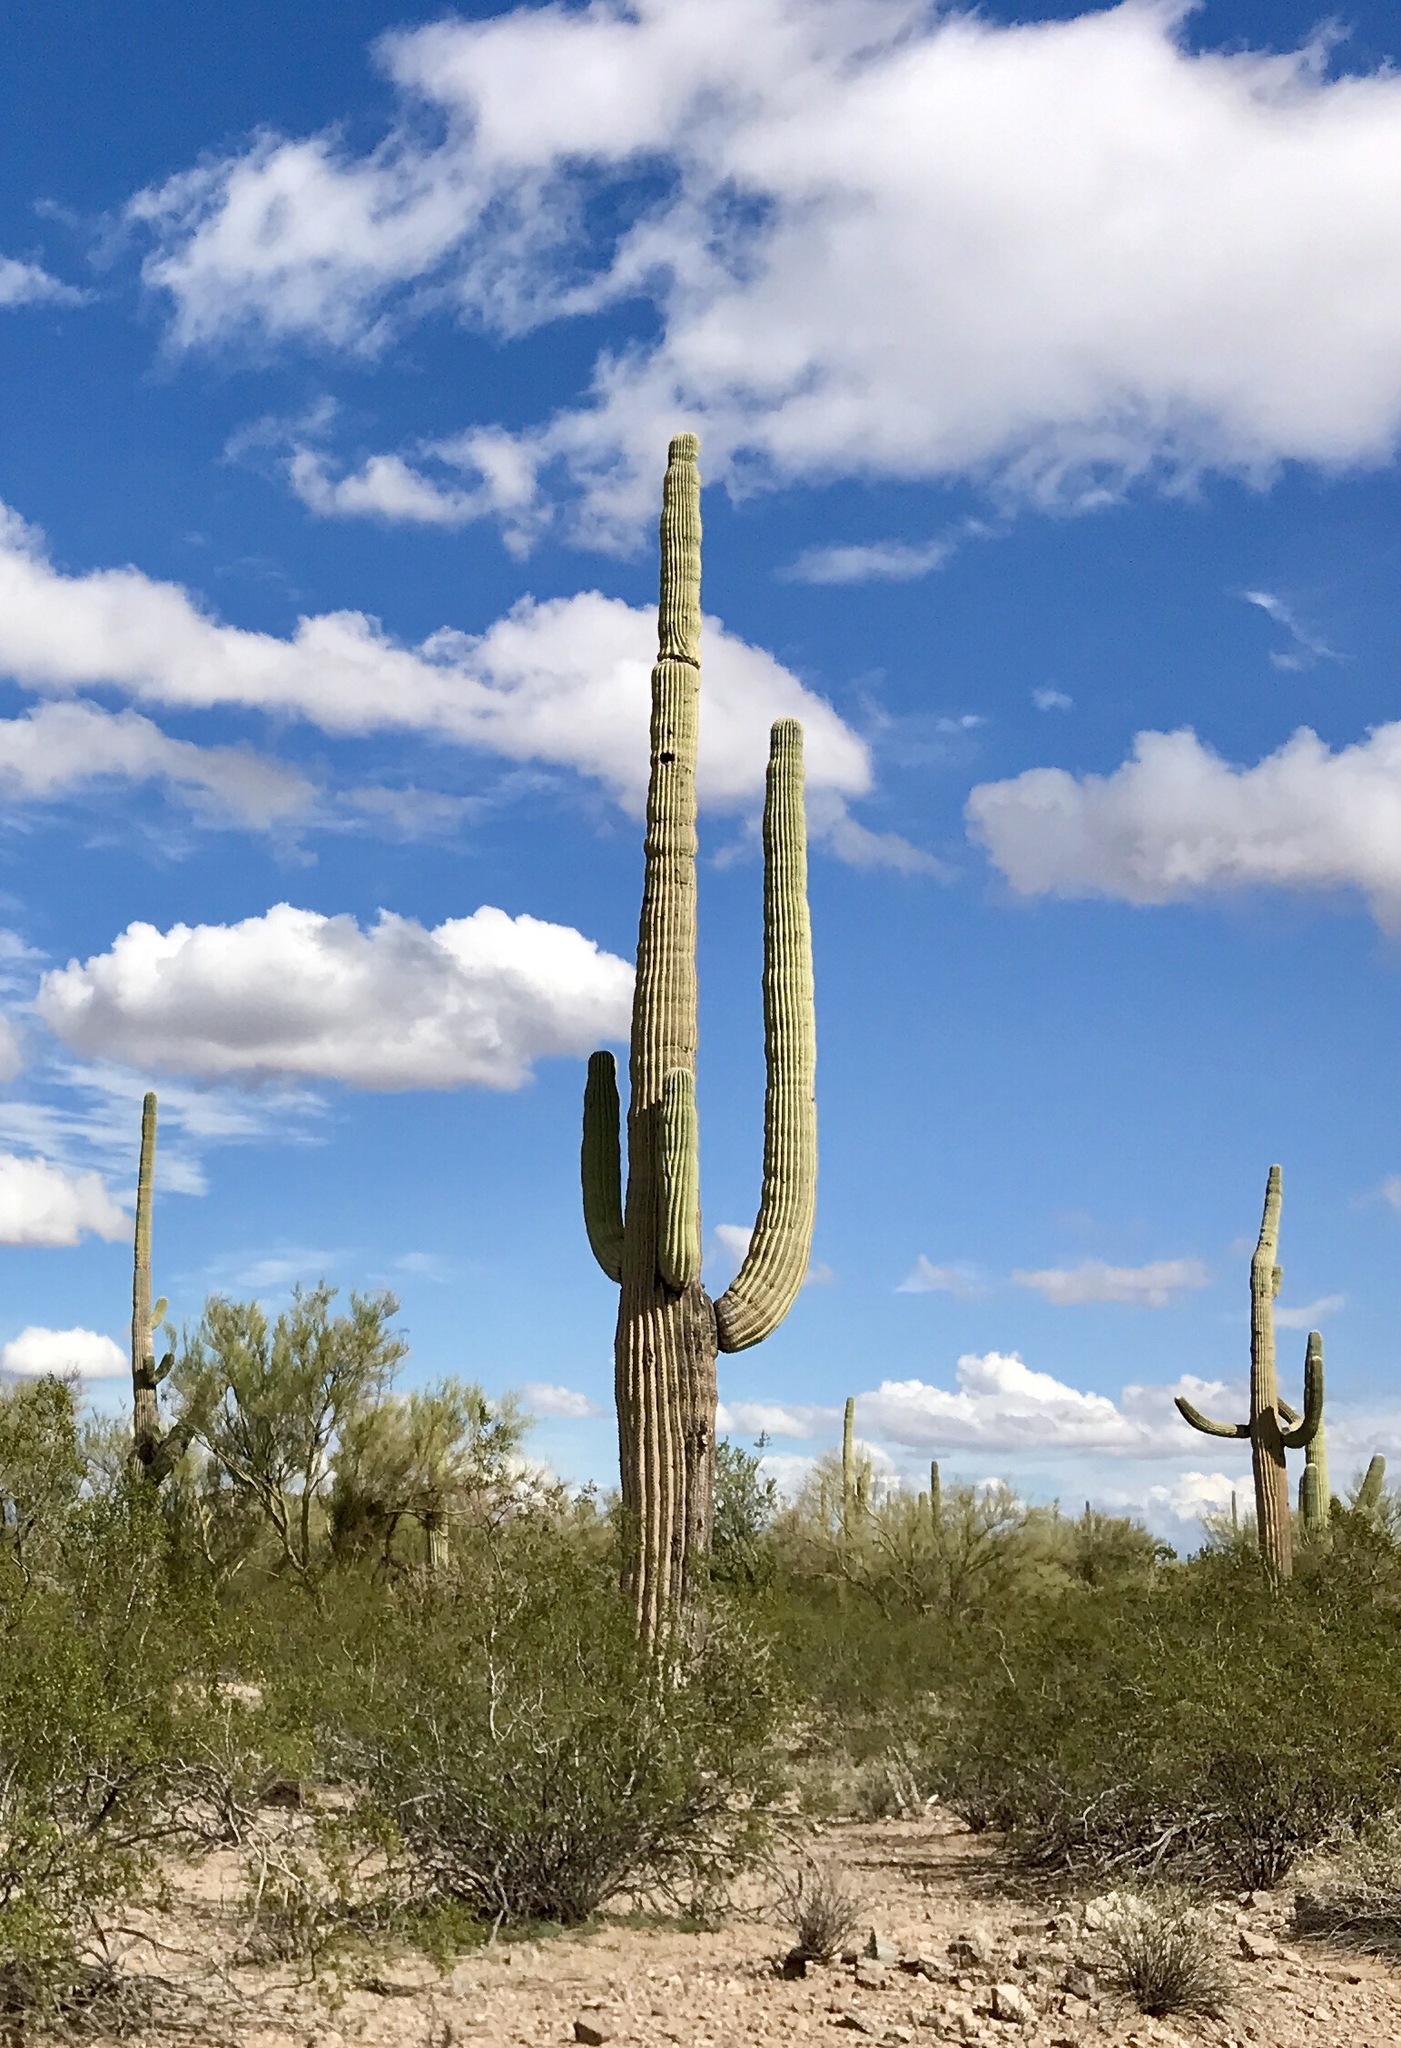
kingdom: Plantae
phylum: Tracheophyta
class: Magnoliopsida
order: Caryophyllales
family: Cactaceae
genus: Carnegiea
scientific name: Carnegiea gigantea
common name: Saguaro
